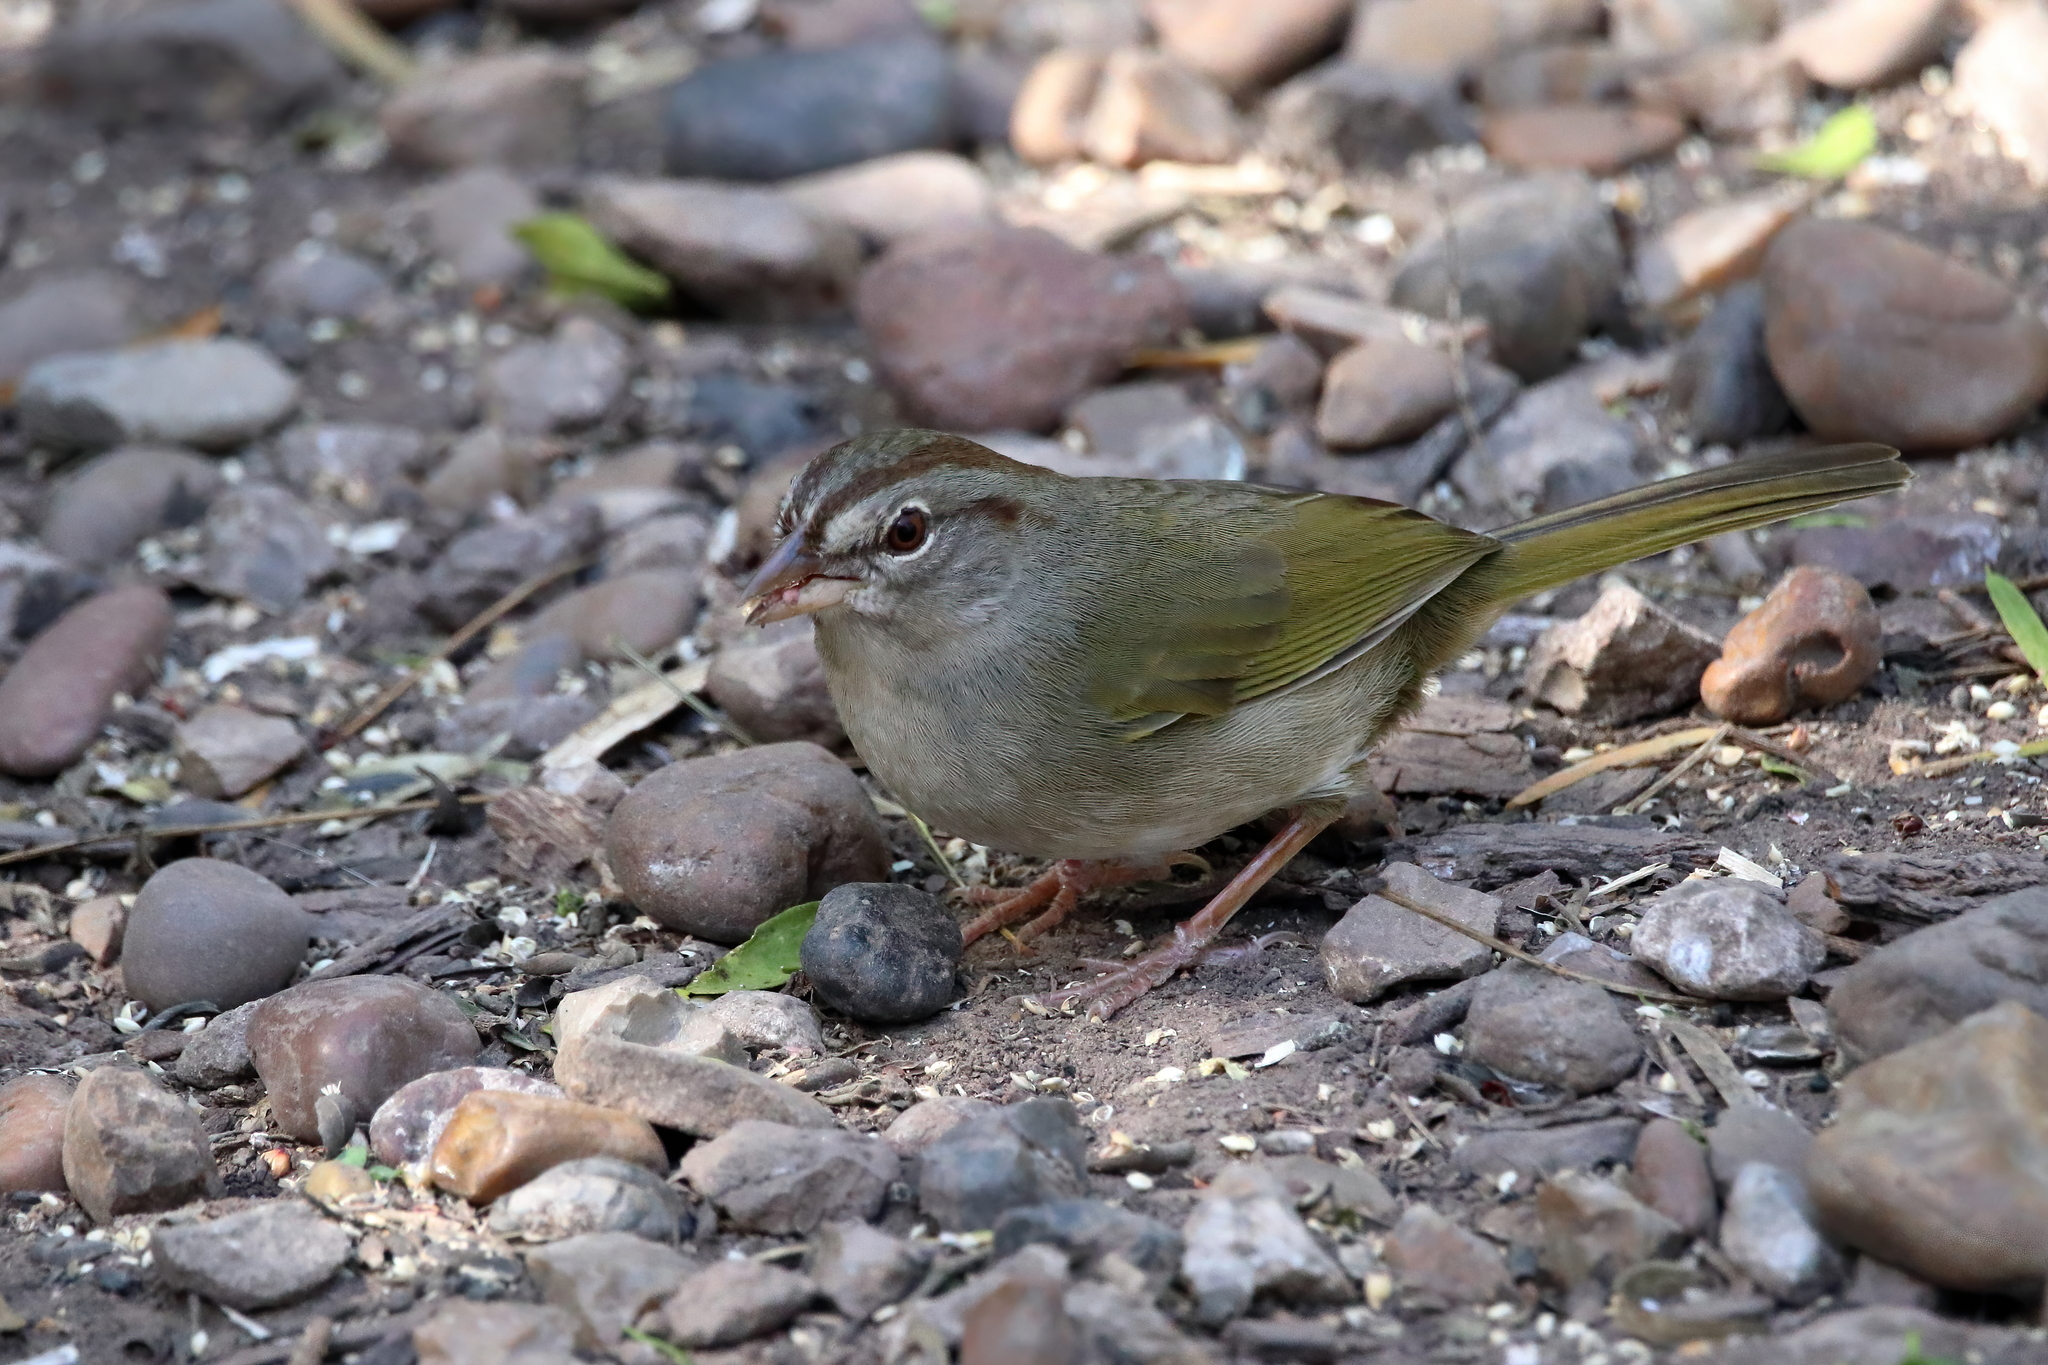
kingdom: Animalia
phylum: Chordata
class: Aves
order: Passeriformes
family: Passerellidae
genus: Arremonops
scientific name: Arremonops rufivirgatus
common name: Olive sparrow
